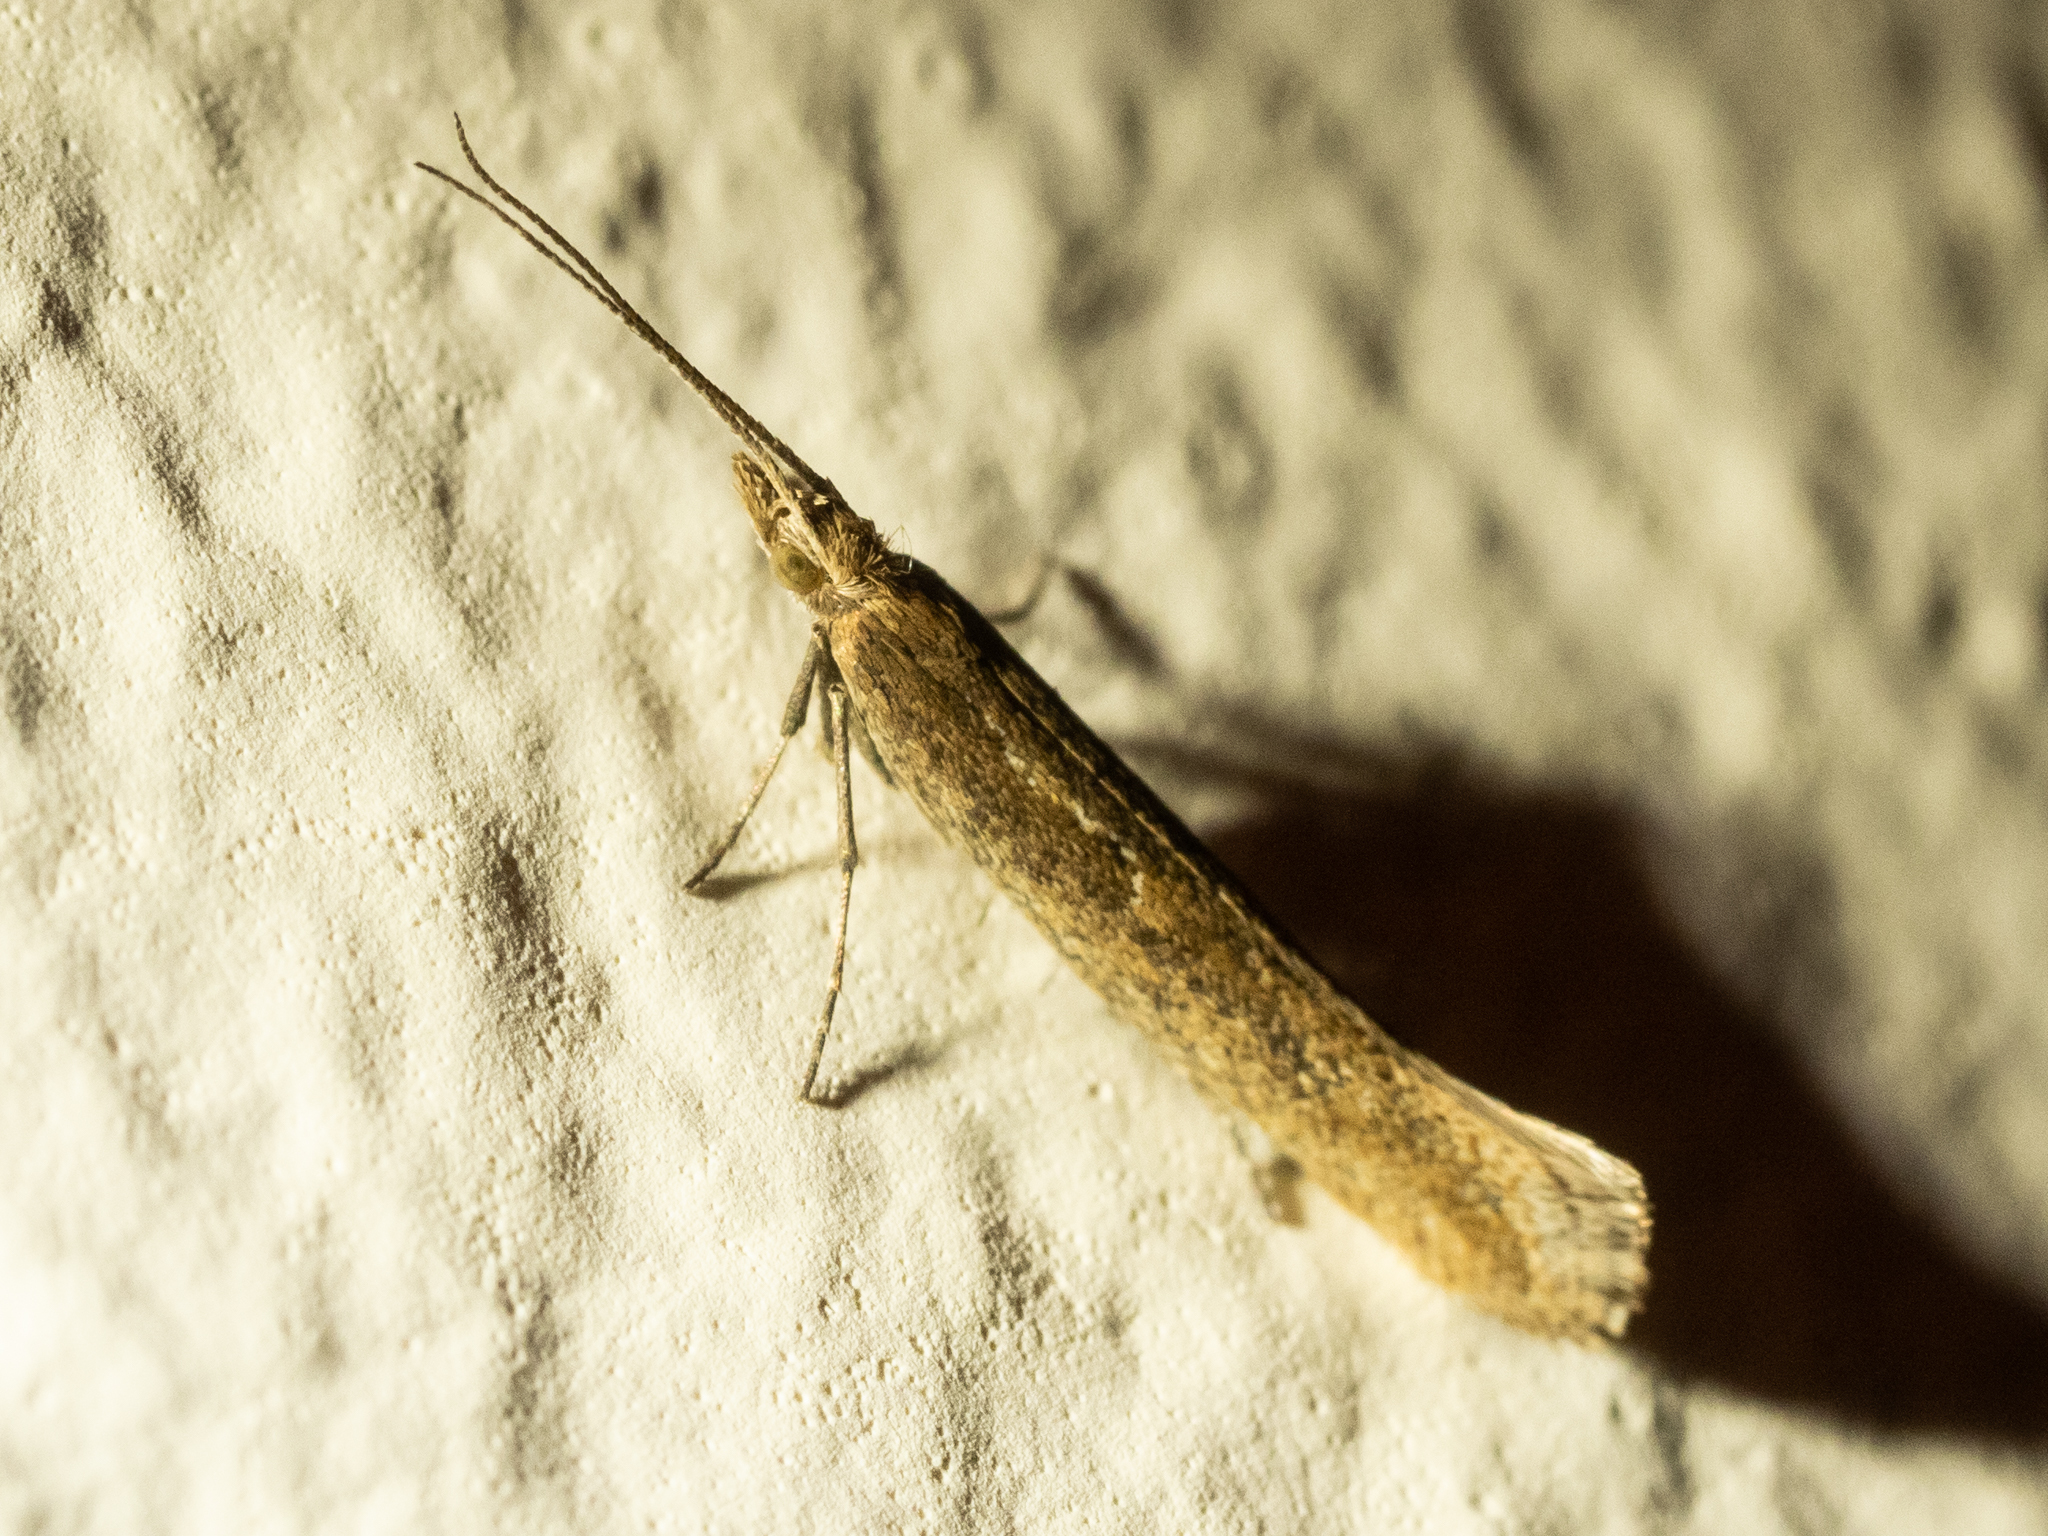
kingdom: Animalia
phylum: Arthropoda
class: Insecta
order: Lepidoptera
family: Plutellidae
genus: Plutella
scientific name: Plutella xylostella
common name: Diamond-back moth
